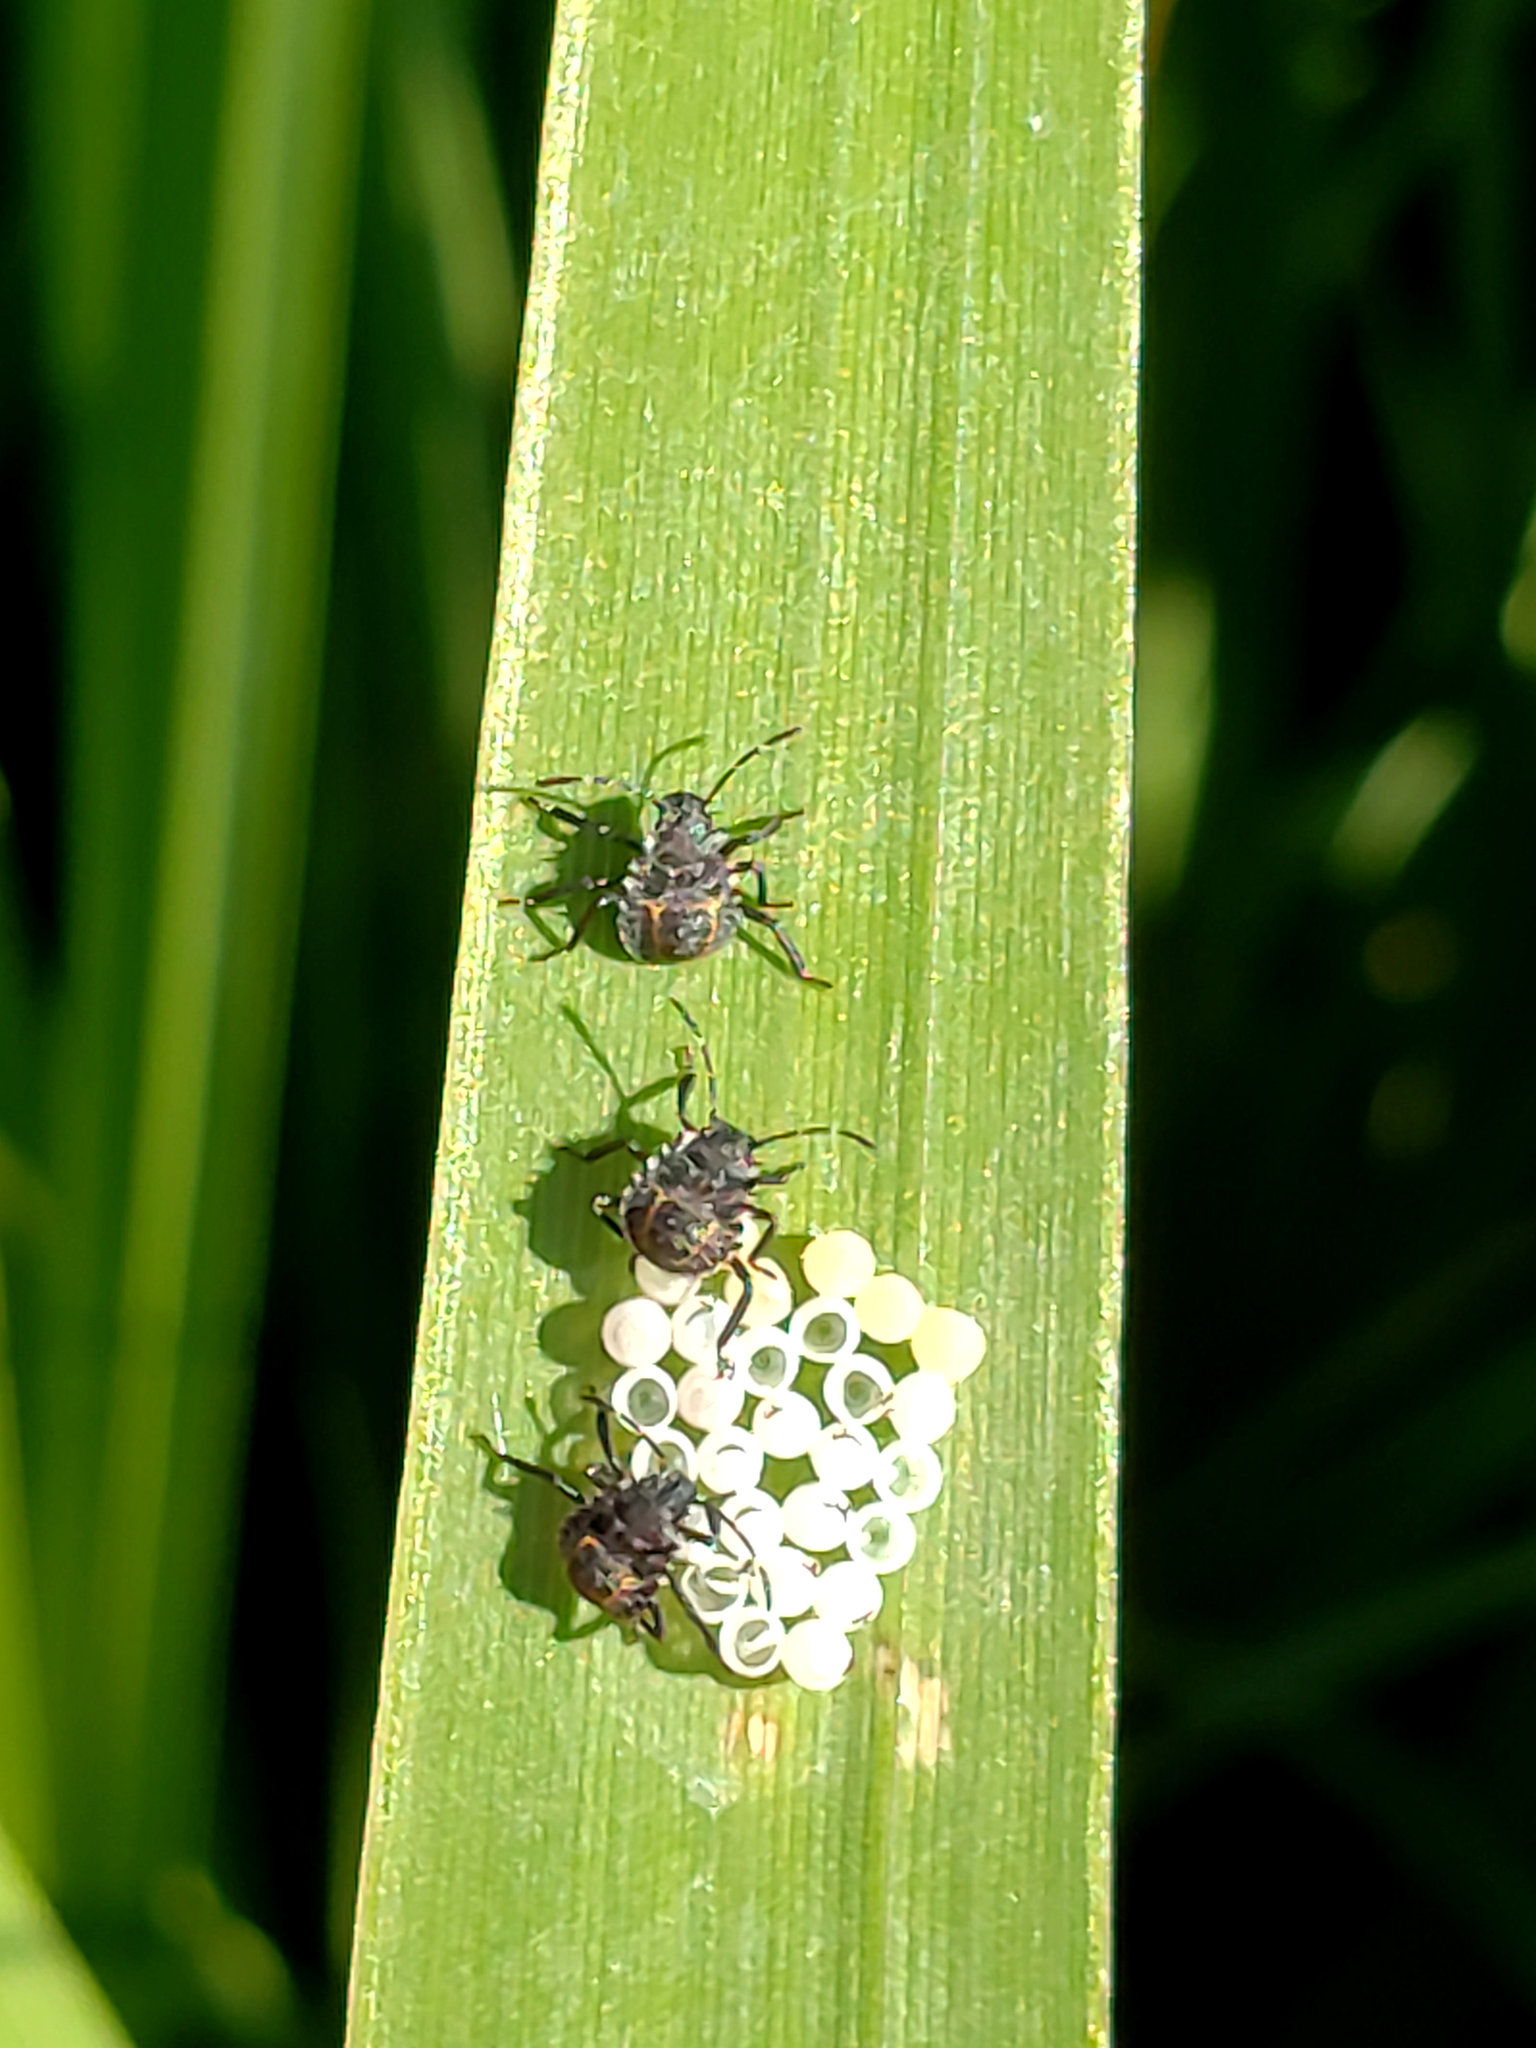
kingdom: Animalia
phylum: Arthropoda
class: Insecta
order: Hemiptera
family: Pentatomidae
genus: Halyomorpha
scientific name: Halyomorpha halys
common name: Brown marmorated stink bug
